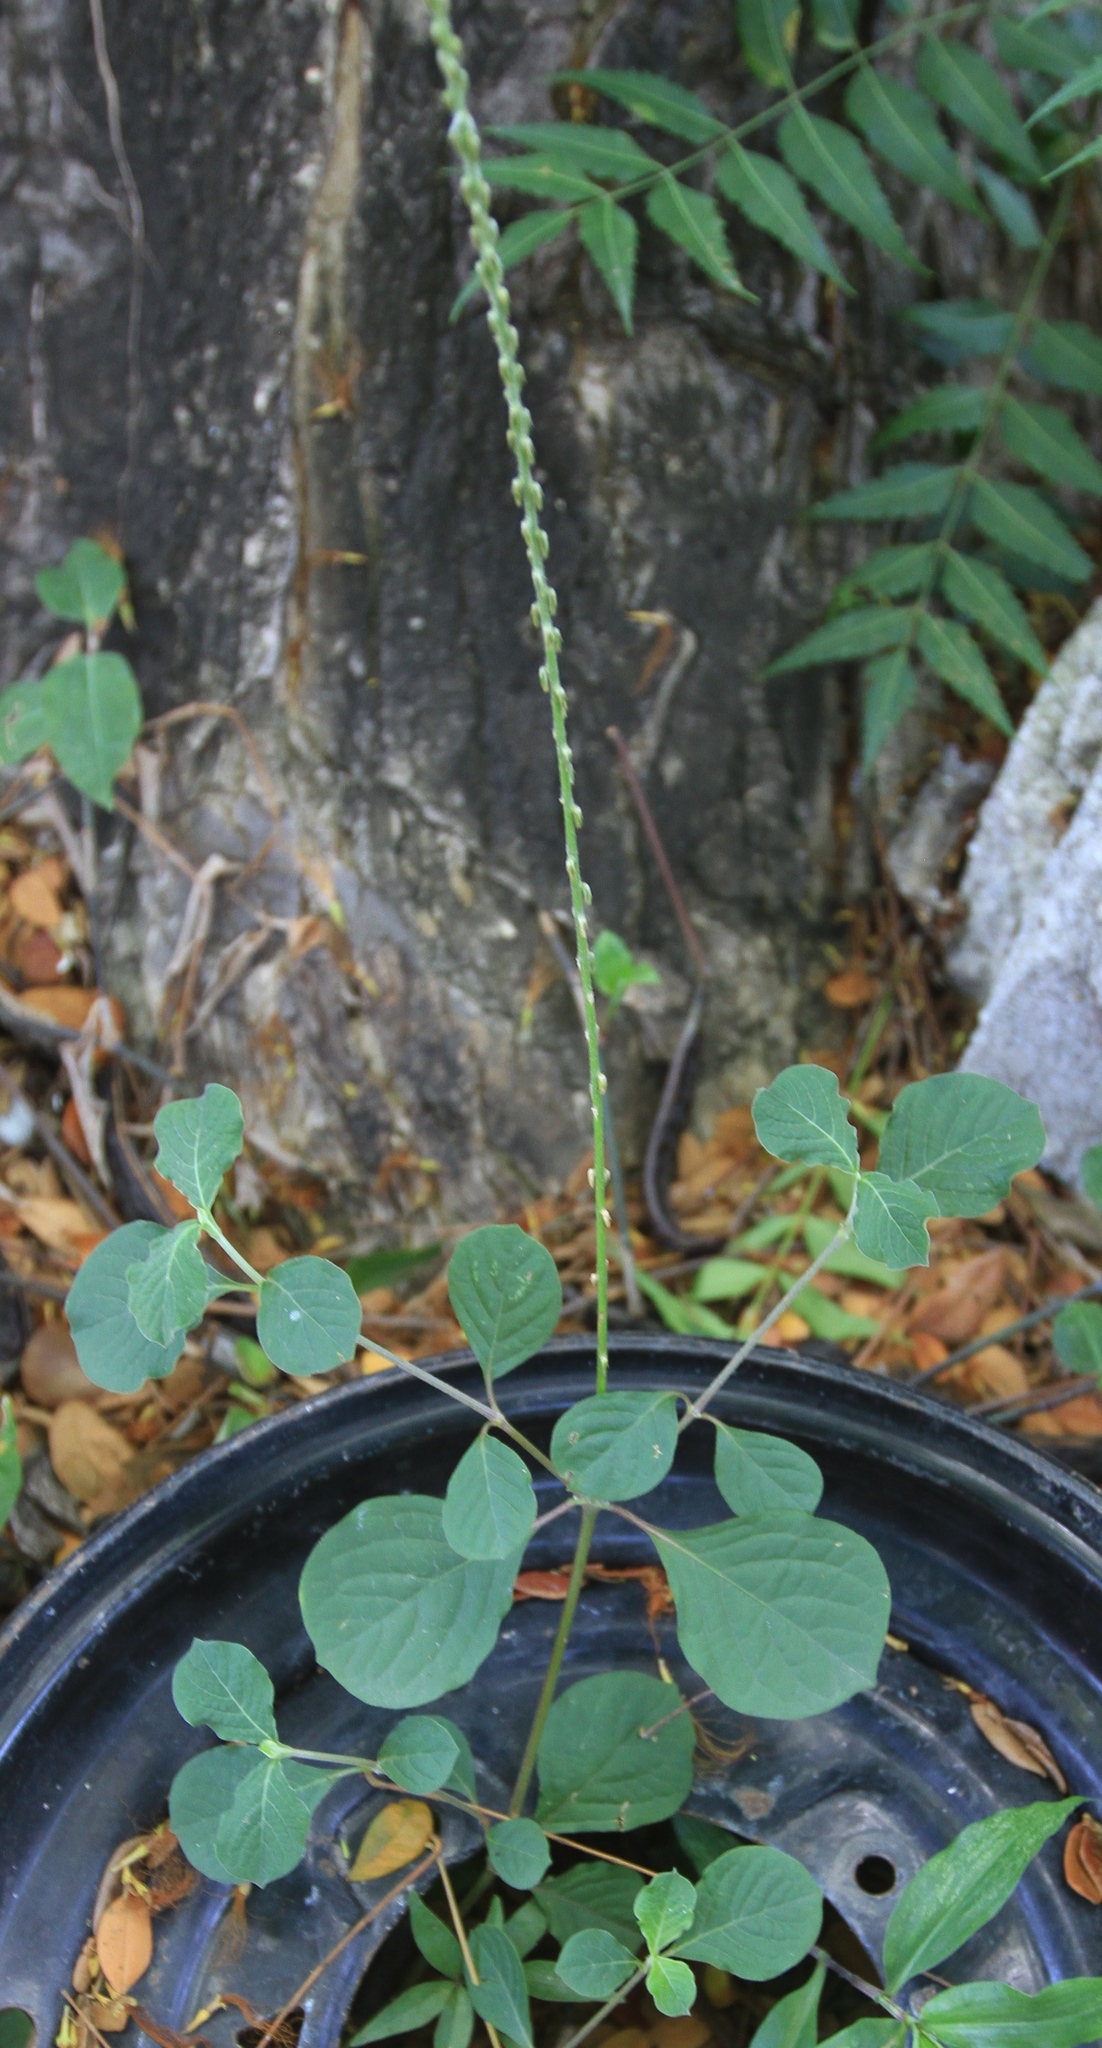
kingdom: Plantae
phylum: Tracheophyta
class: Magnoliopsida
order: Caryophyllales
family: Amaranthaceae
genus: Achyranthes
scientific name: Achyranthes aspera
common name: Devil's horsewhip
